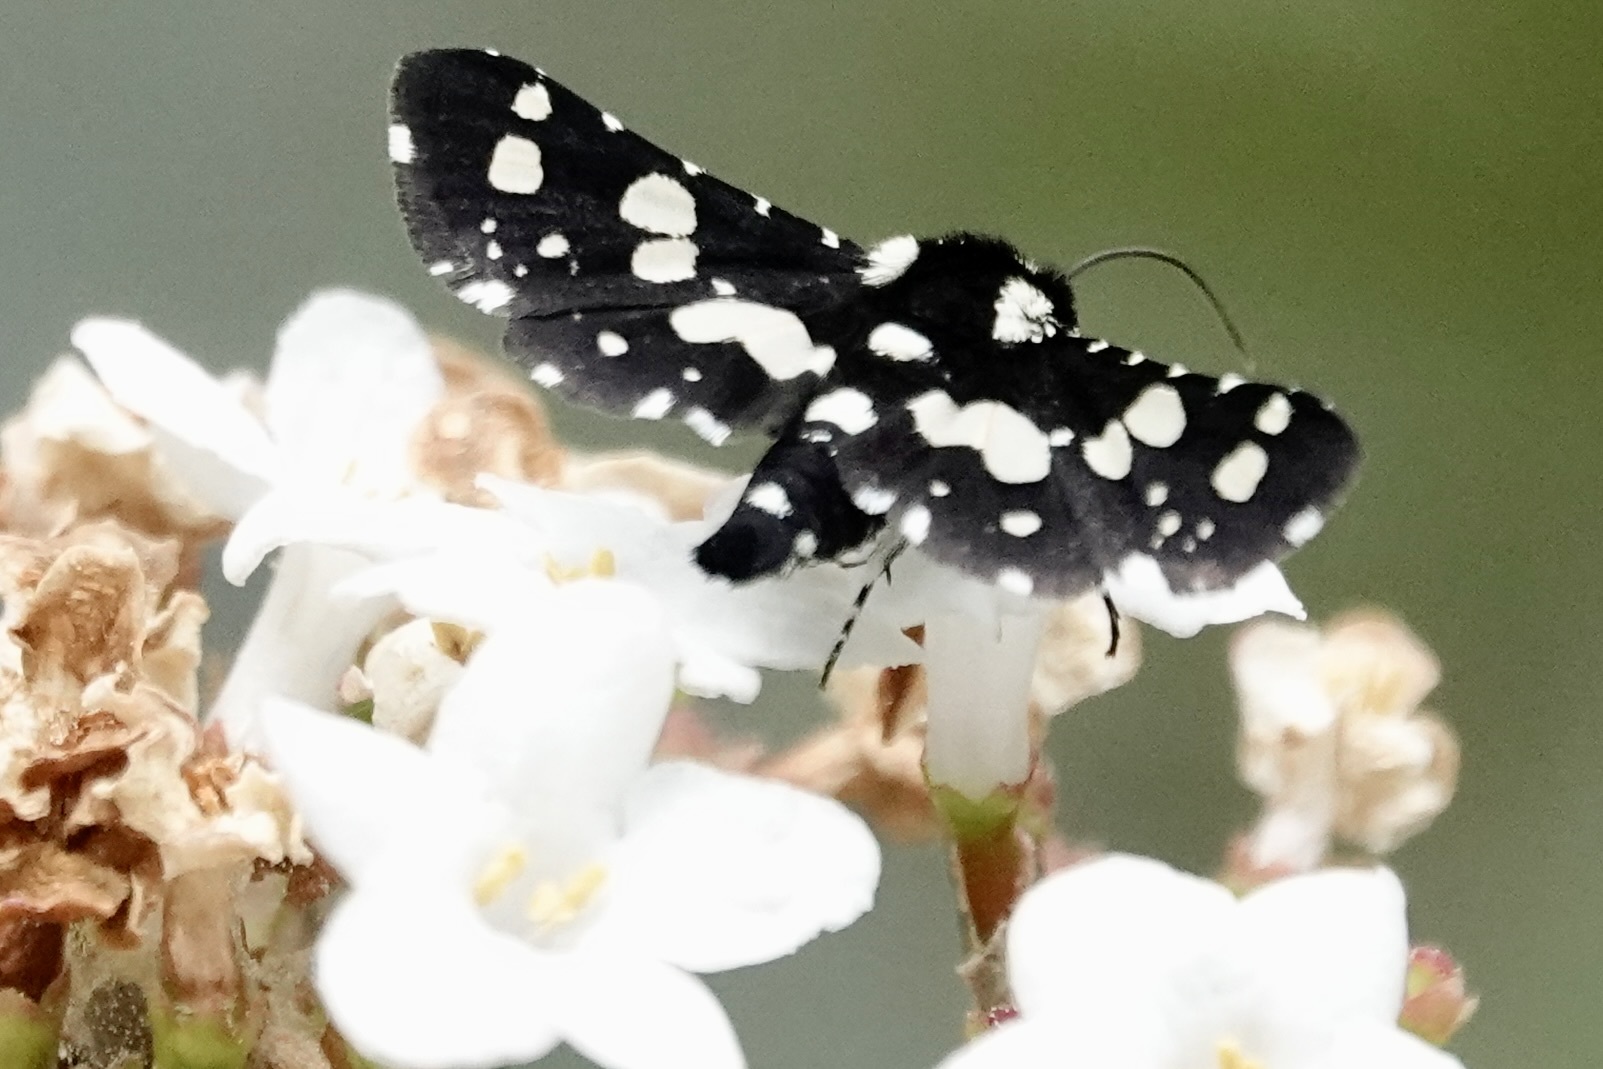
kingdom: Animalia
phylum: Arthropoda
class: Insecta
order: Lepidoptera
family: Thyrididae
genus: Pseudothyris
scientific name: Pseudothyris sepulchralis
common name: Mournful thyris moth
